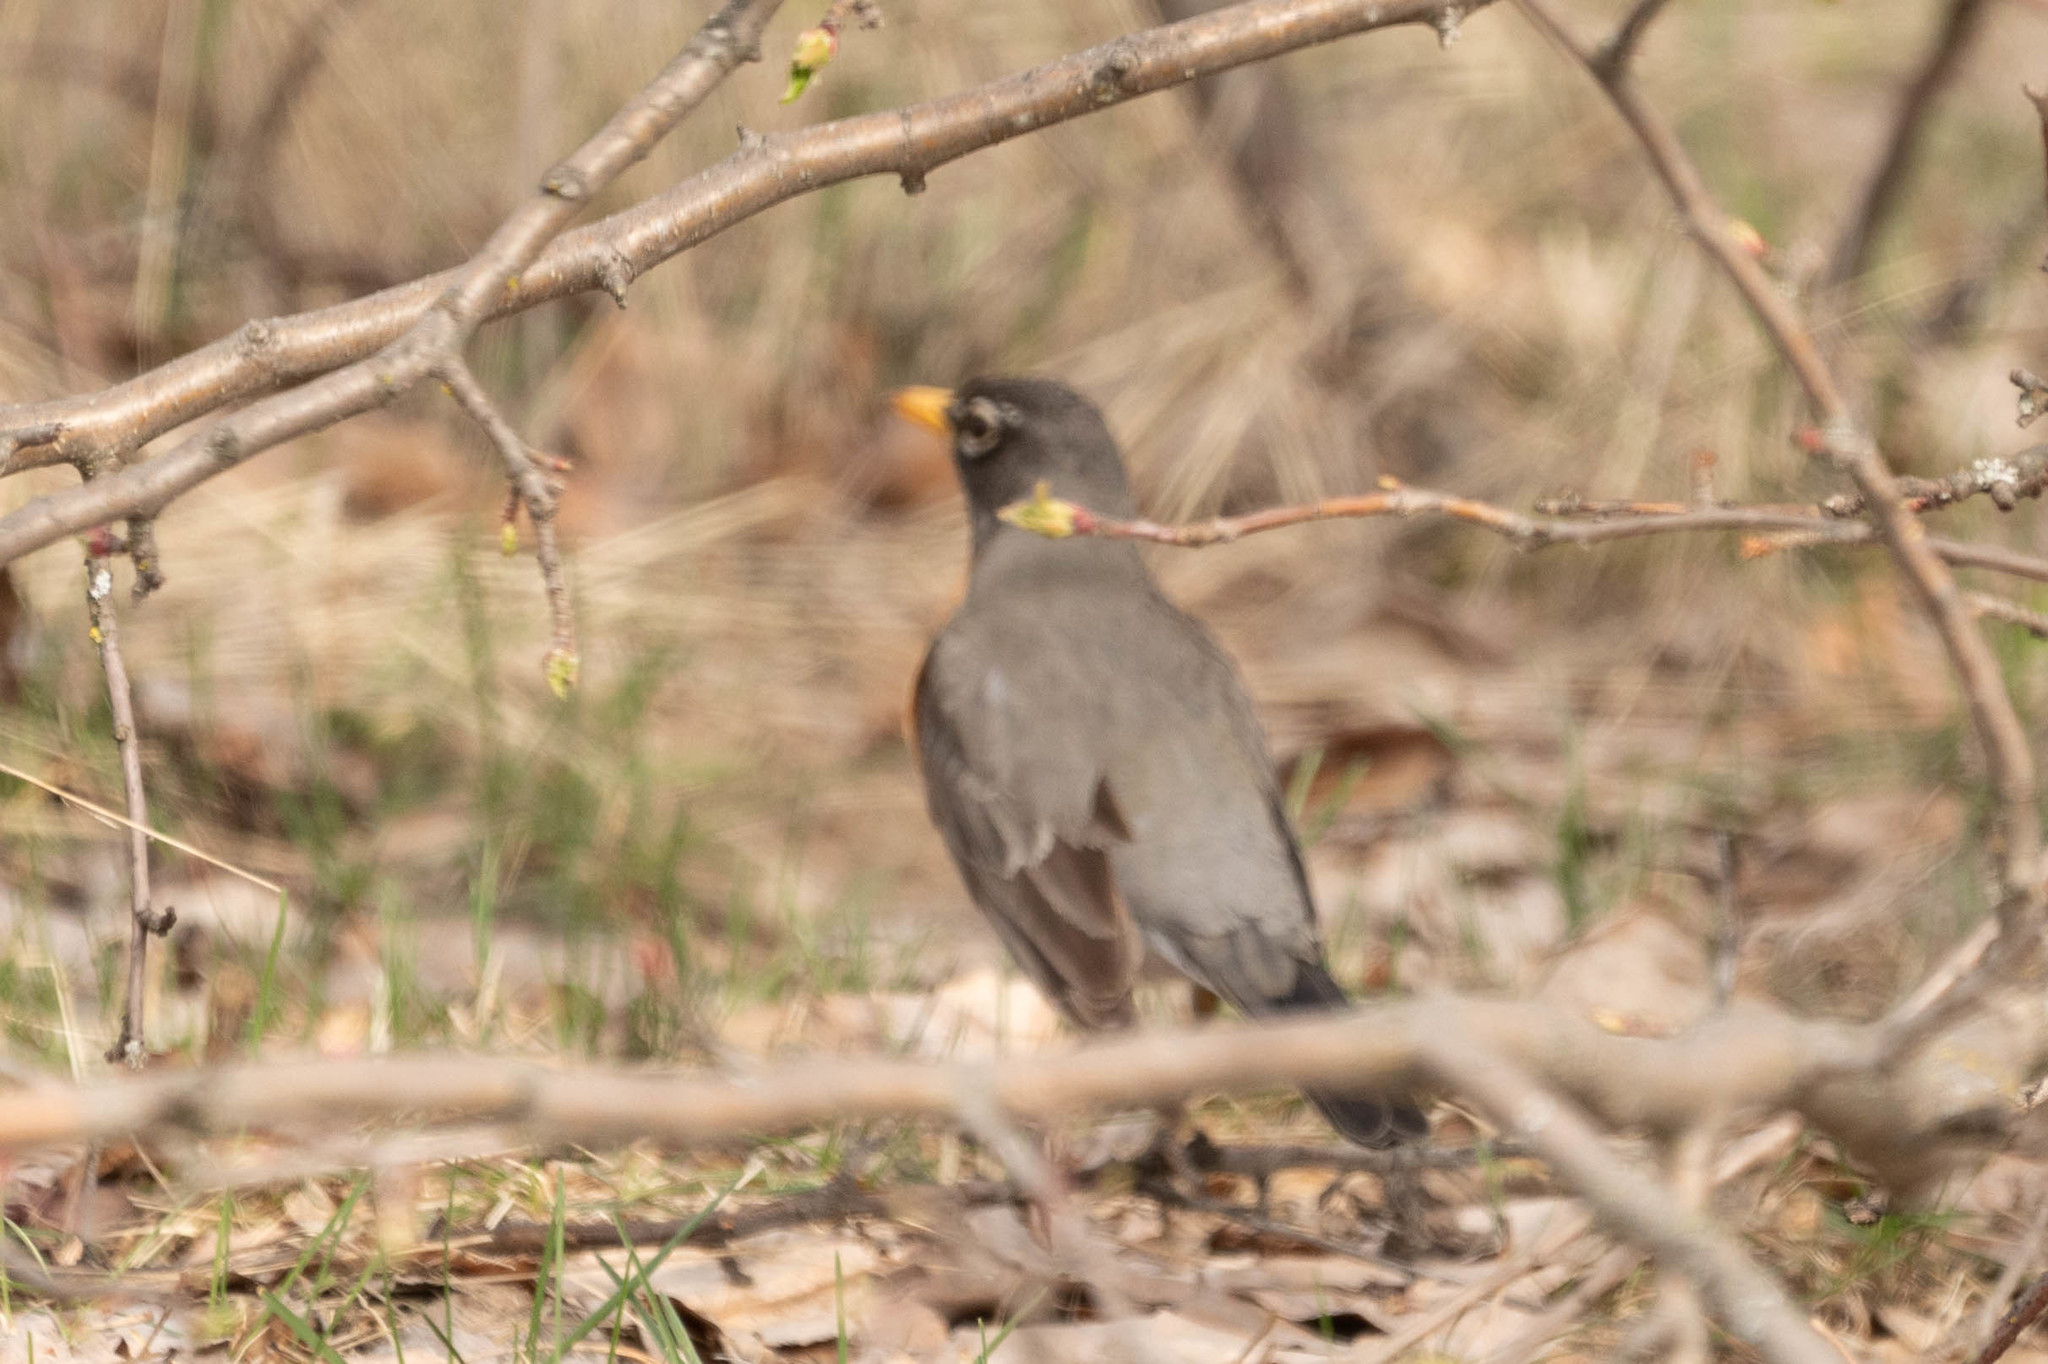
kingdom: Animalia
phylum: Chordata
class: Aves
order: Passeriformes
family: Turdidae
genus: Turdus
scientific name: Turdus migratorius
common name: American robin
